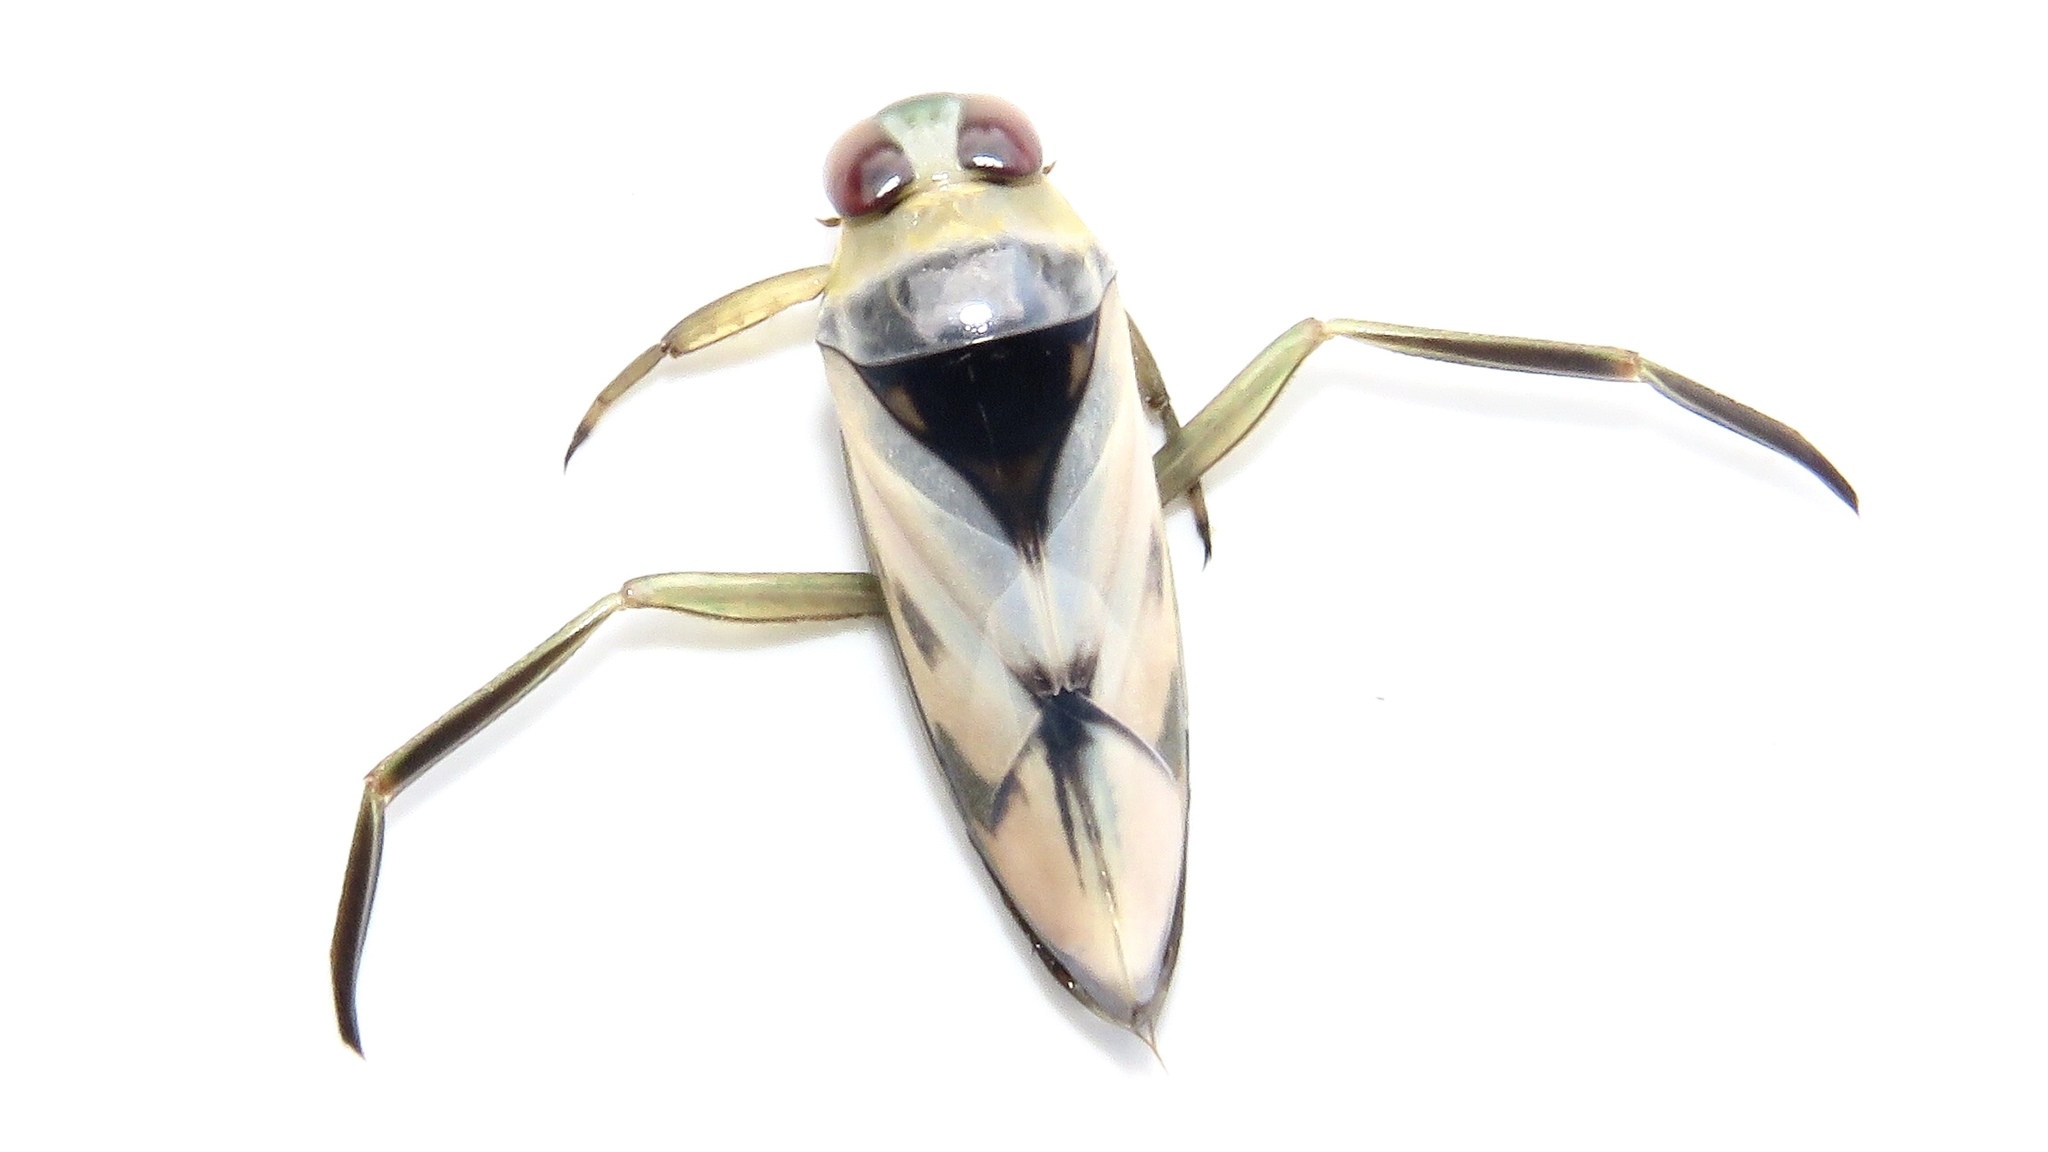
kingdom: Animalia
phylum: Arthropoda
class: Insecta
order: Hemiptera
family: Notonectidae
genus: Notonecta
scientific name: Notonecta undulata
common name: Grousewinged backswimmer
